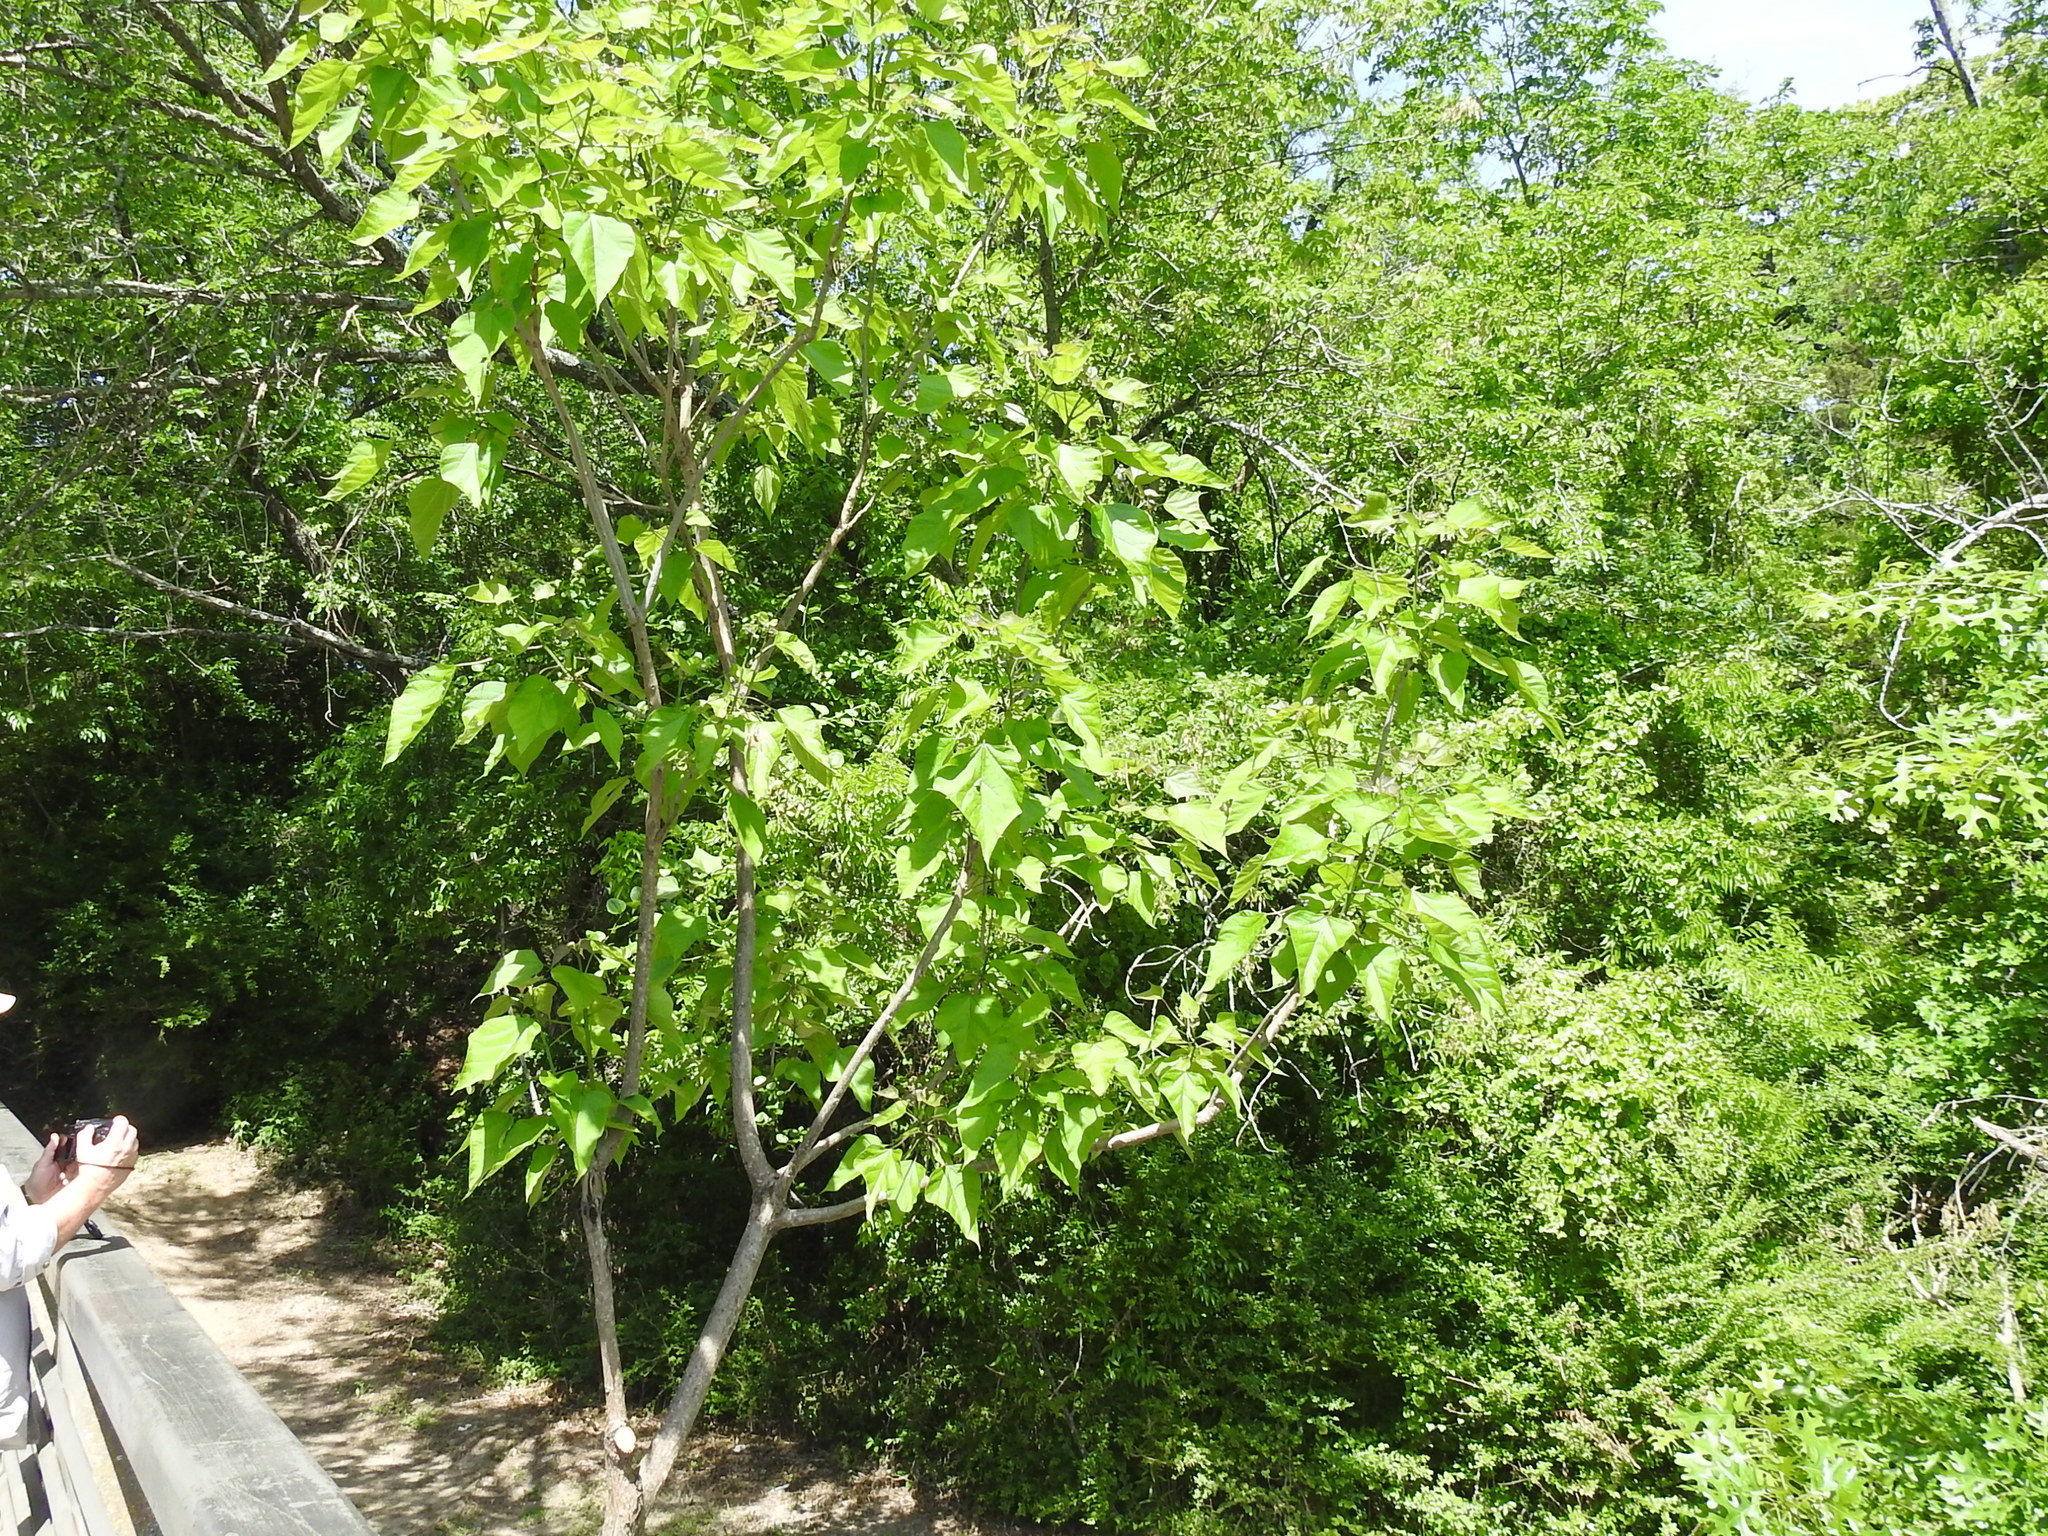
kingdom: Plantae
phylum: Tracheophyta
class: Magnoliopsida
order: Lamiales
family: Bignoniaceae
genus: Catalpa
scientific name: Catalpa speciosa
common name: Northern catalpa
